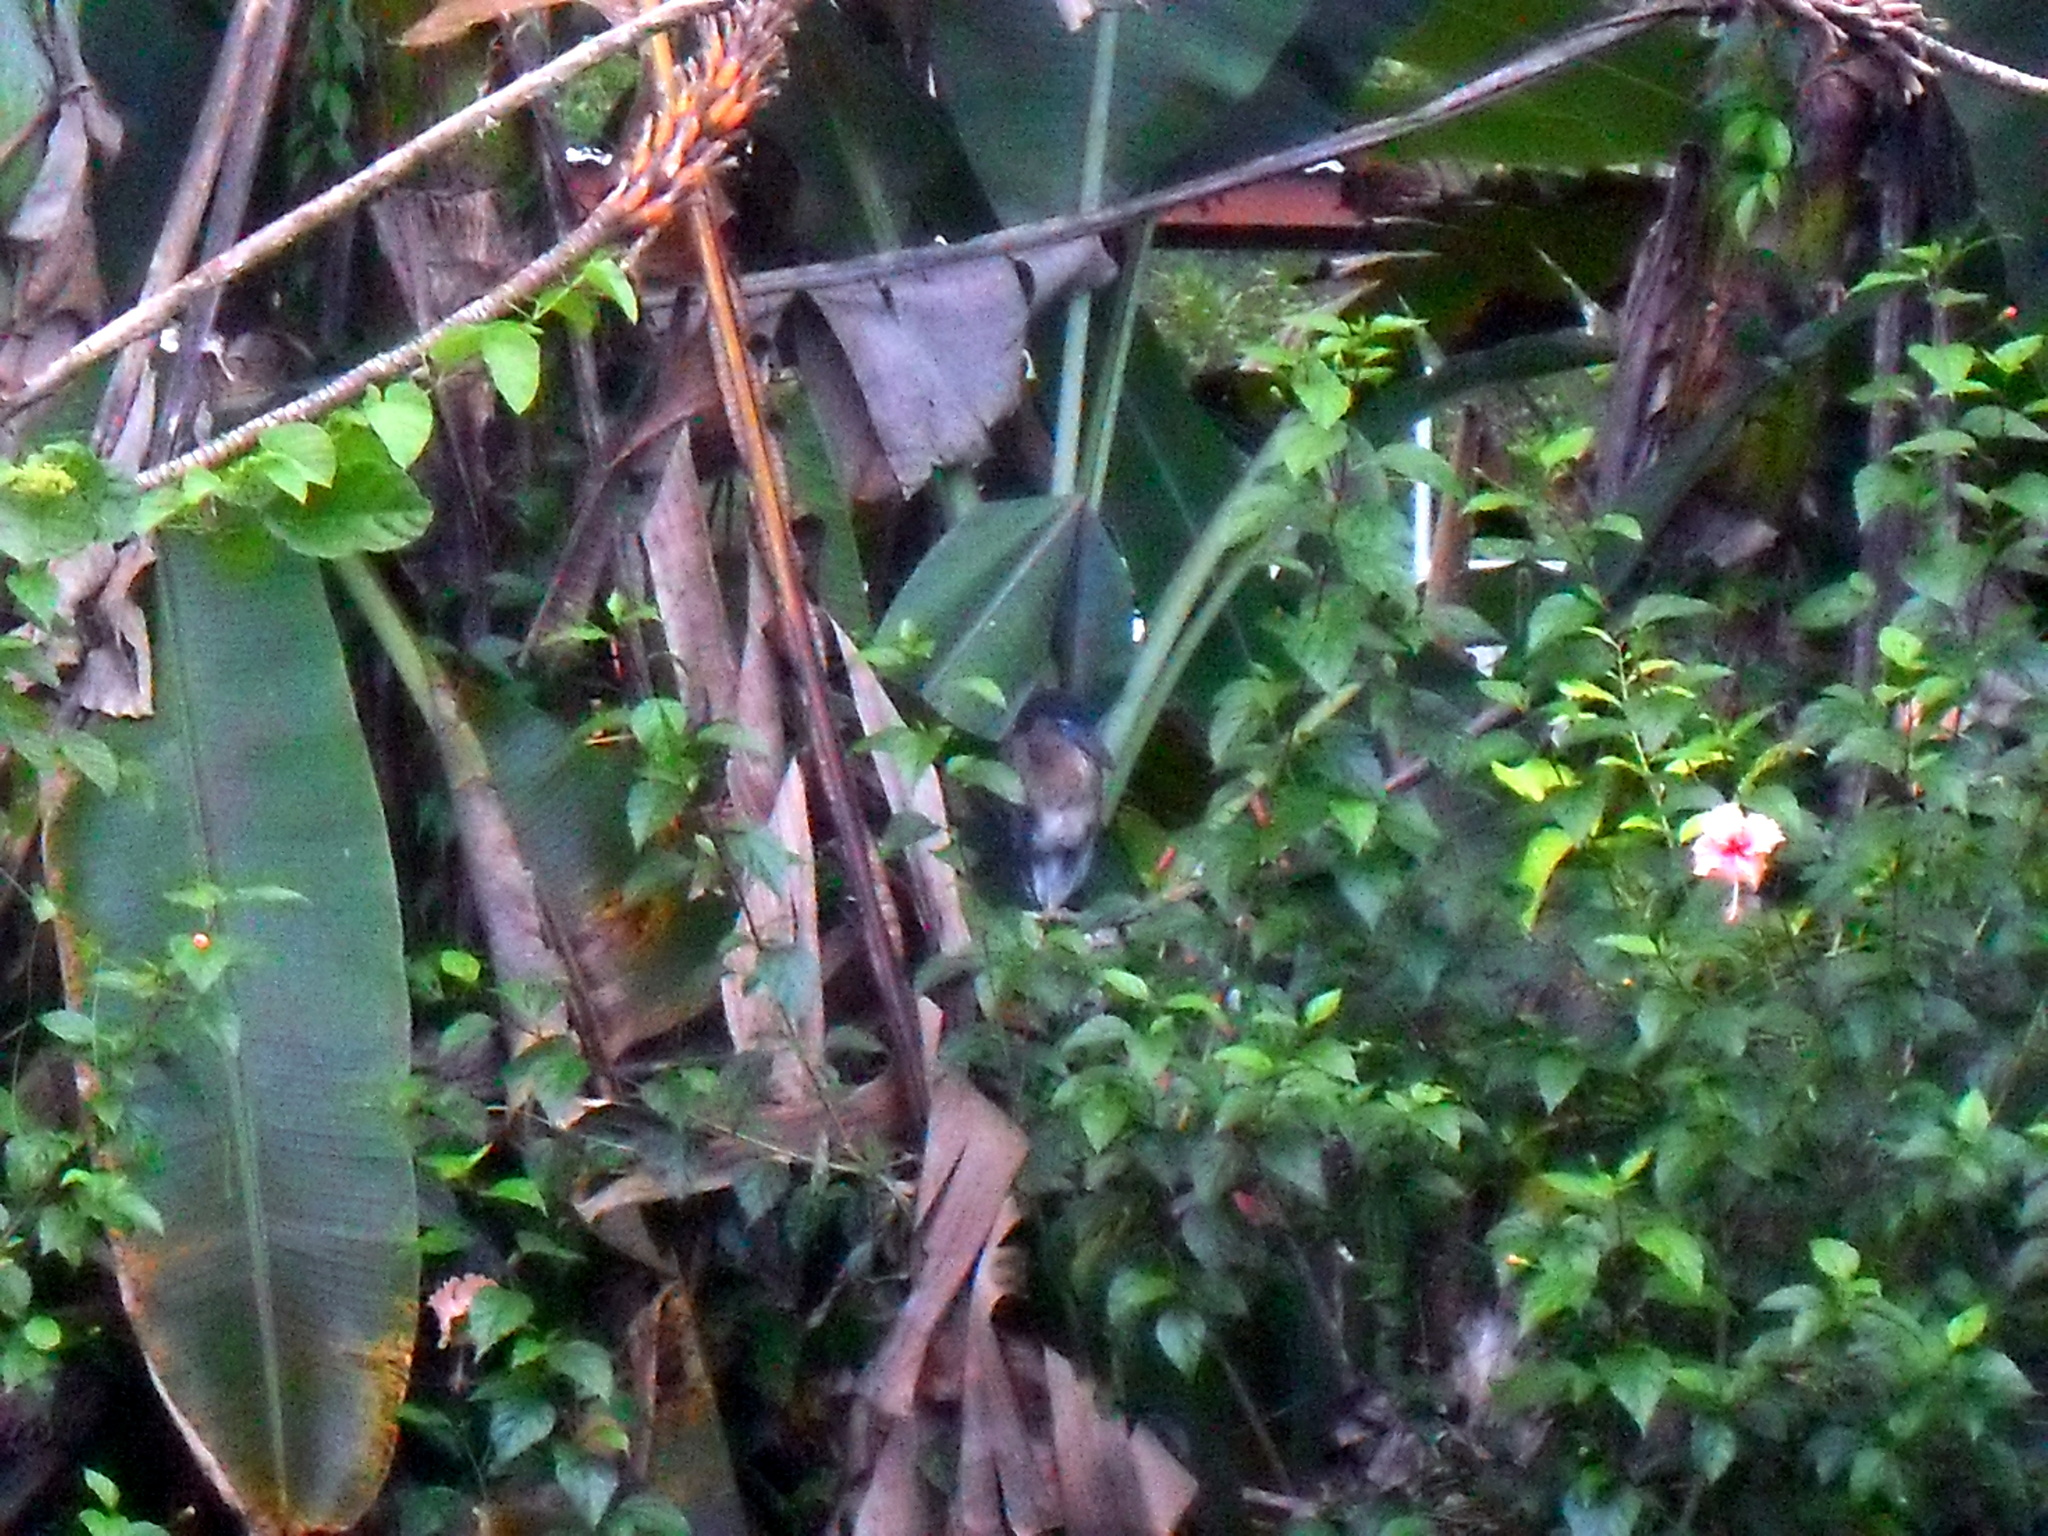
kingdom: Animalia
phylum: Chordata
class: Aves
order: Pelecaniformes
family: Ardeidae
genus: Cochlearius
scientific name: Cochlearius cochlearius
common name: Boat-billed heron
